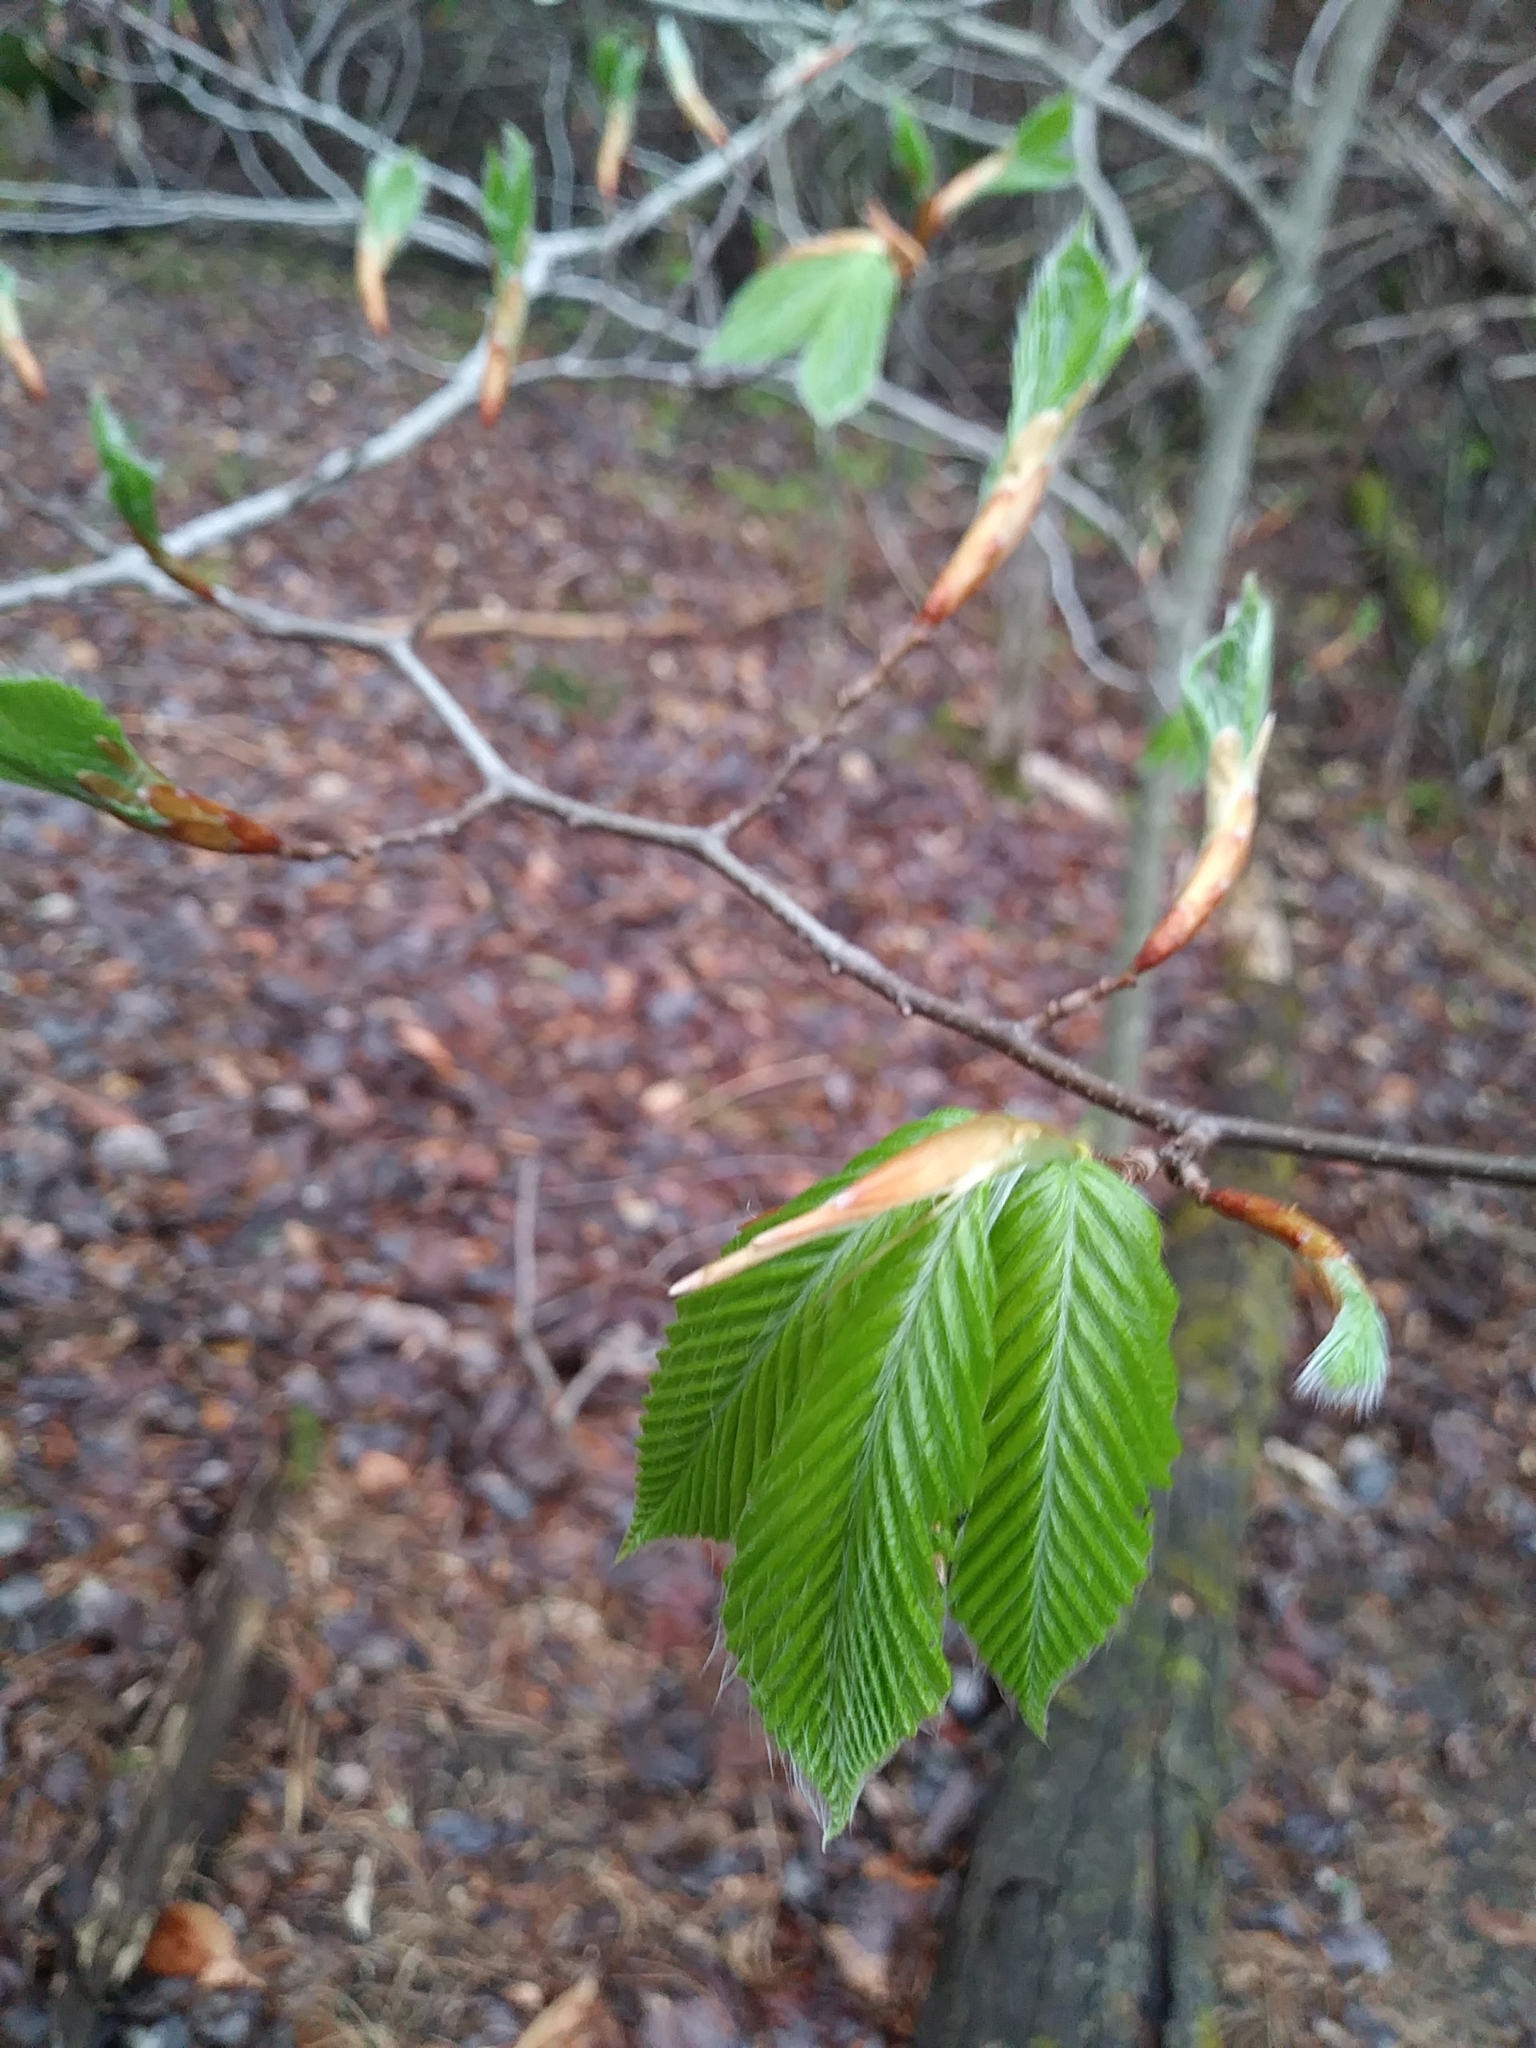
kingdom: Plantae
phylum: Tracheophyta
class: Magnoliopsida
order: Fagales
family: Fagaceae
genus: Fagus
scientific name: Fagus grandifolia
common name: American beech
